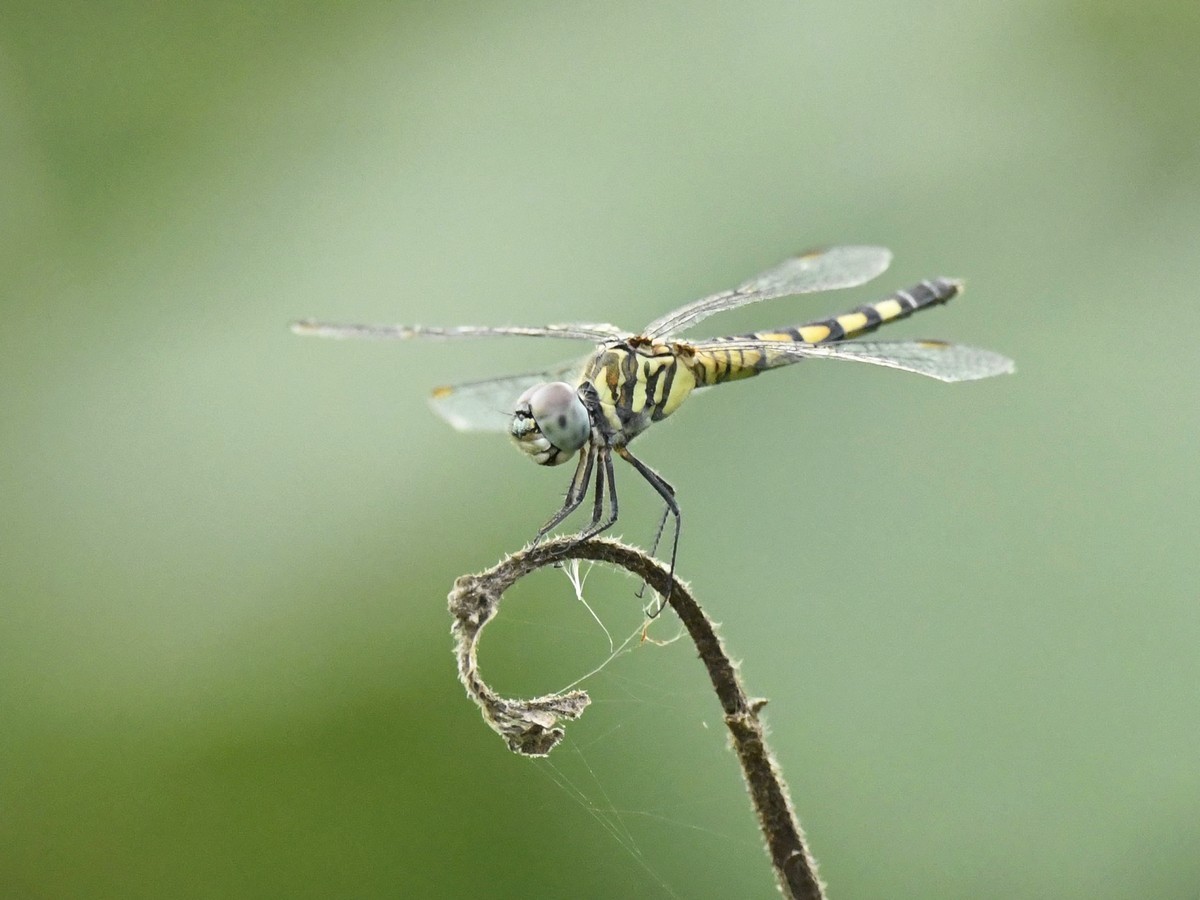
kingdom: Animalia
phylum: Arthropoda
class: Insecta
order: Odonata
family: Libellulidae
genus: Brachydiplax
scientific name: Brachydiplax sobrina
